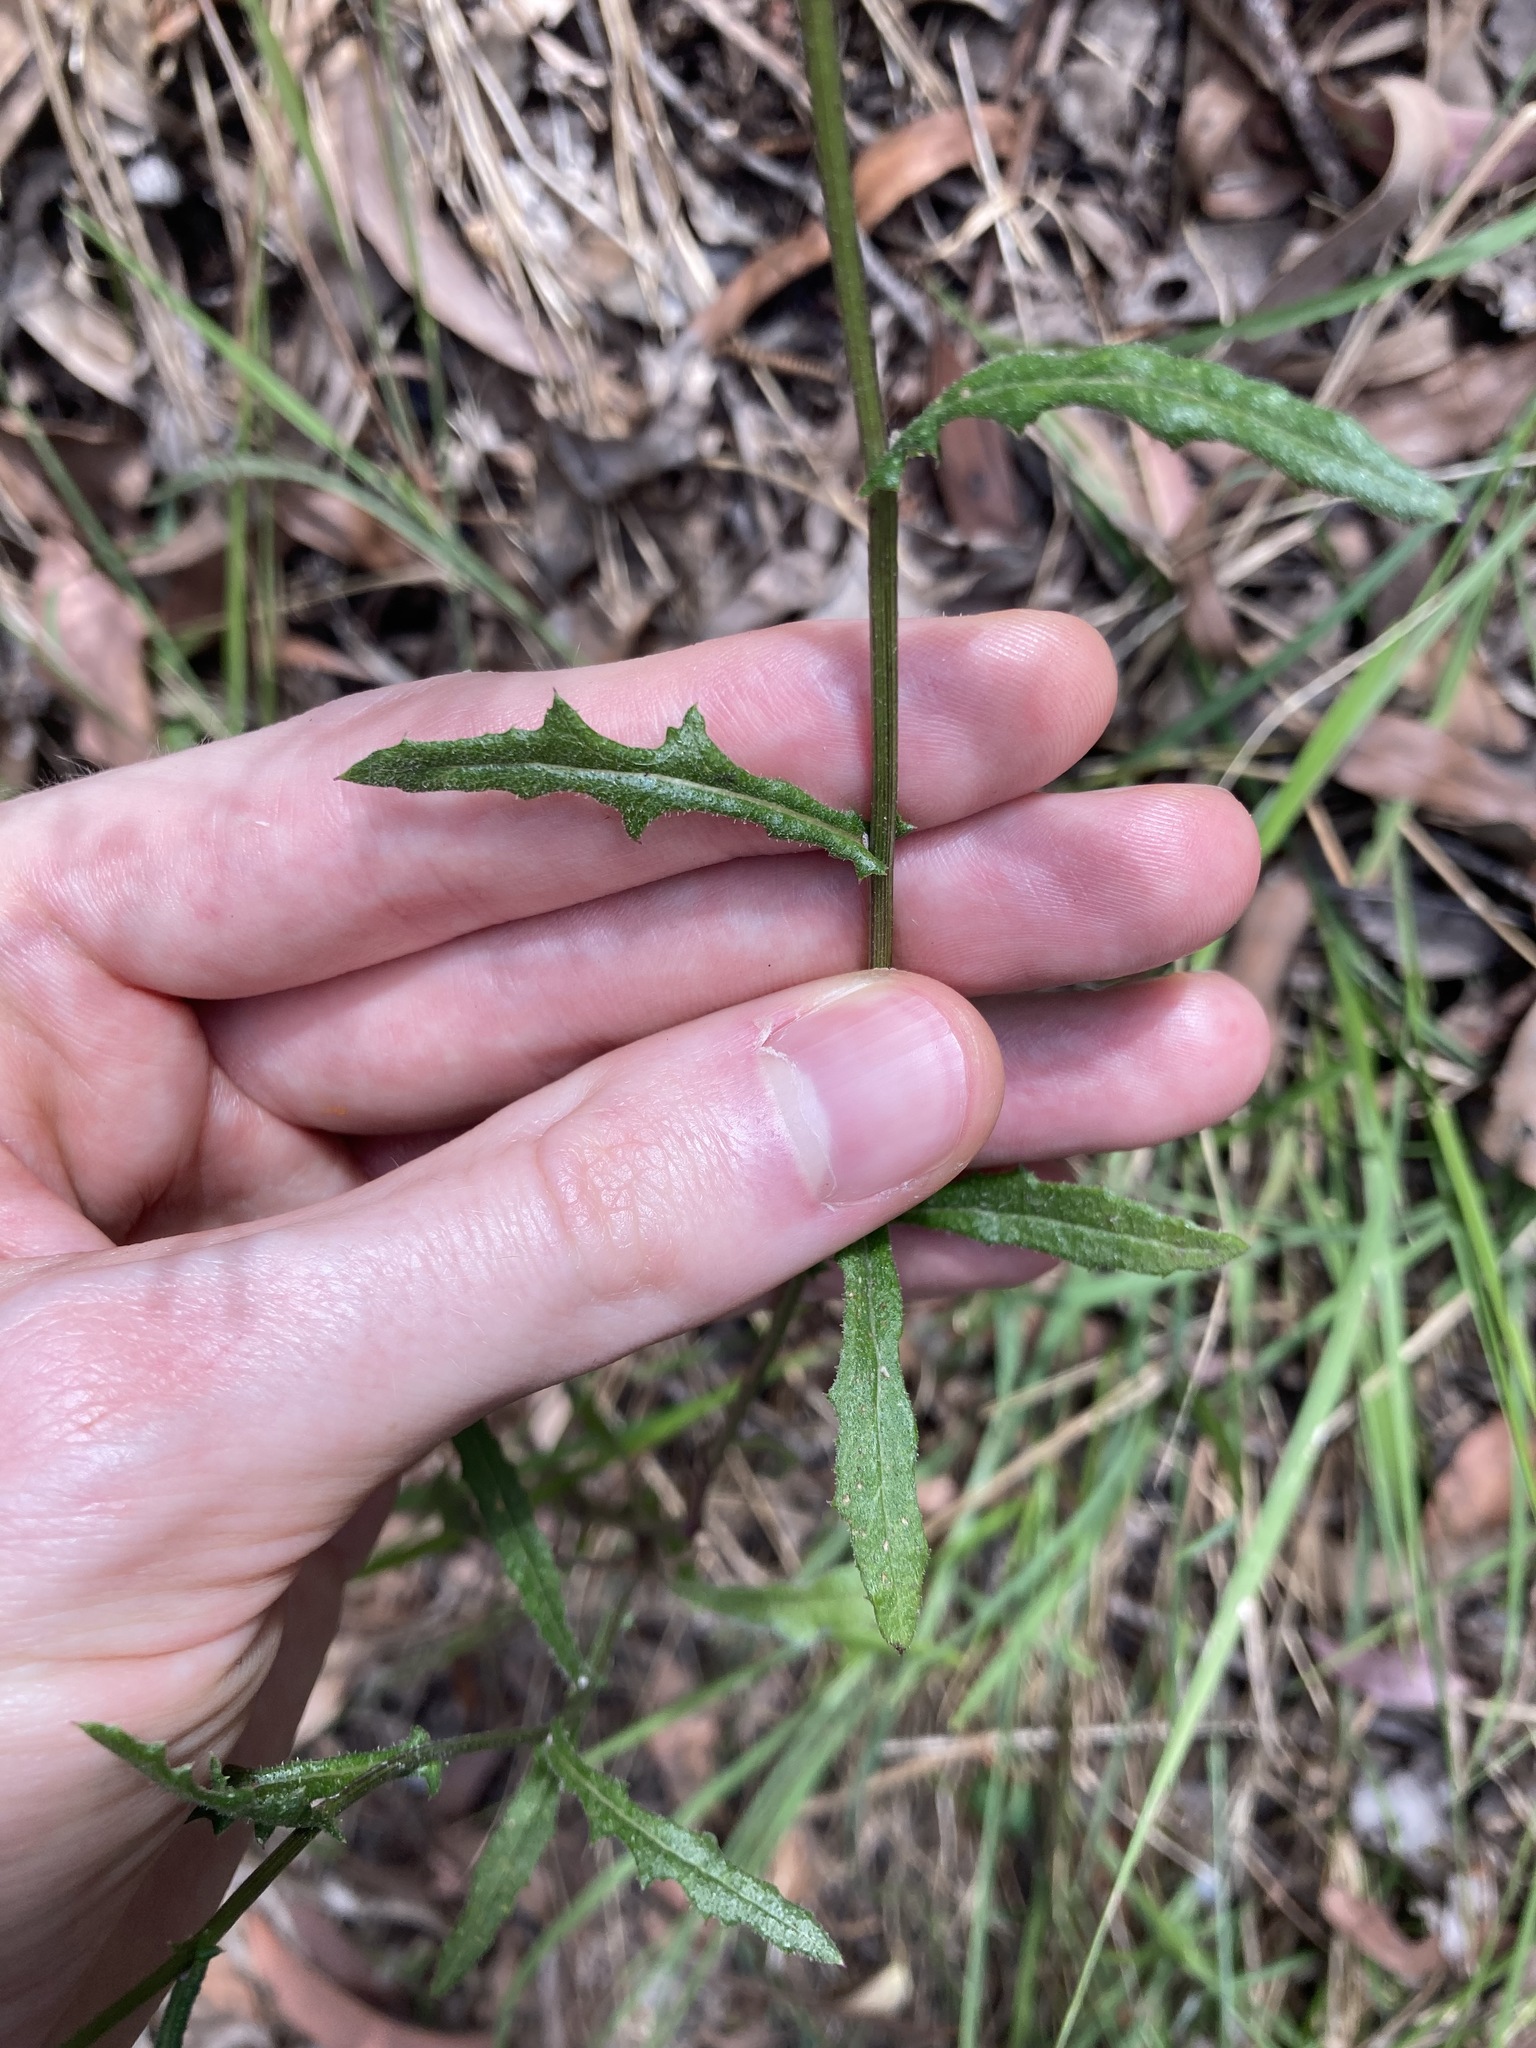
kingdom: Plantae
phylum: Tracheophyta
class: Magnoliopsida
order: Asterales
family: Asteraceae
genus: Senecio
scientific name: Senecio hispidulus
